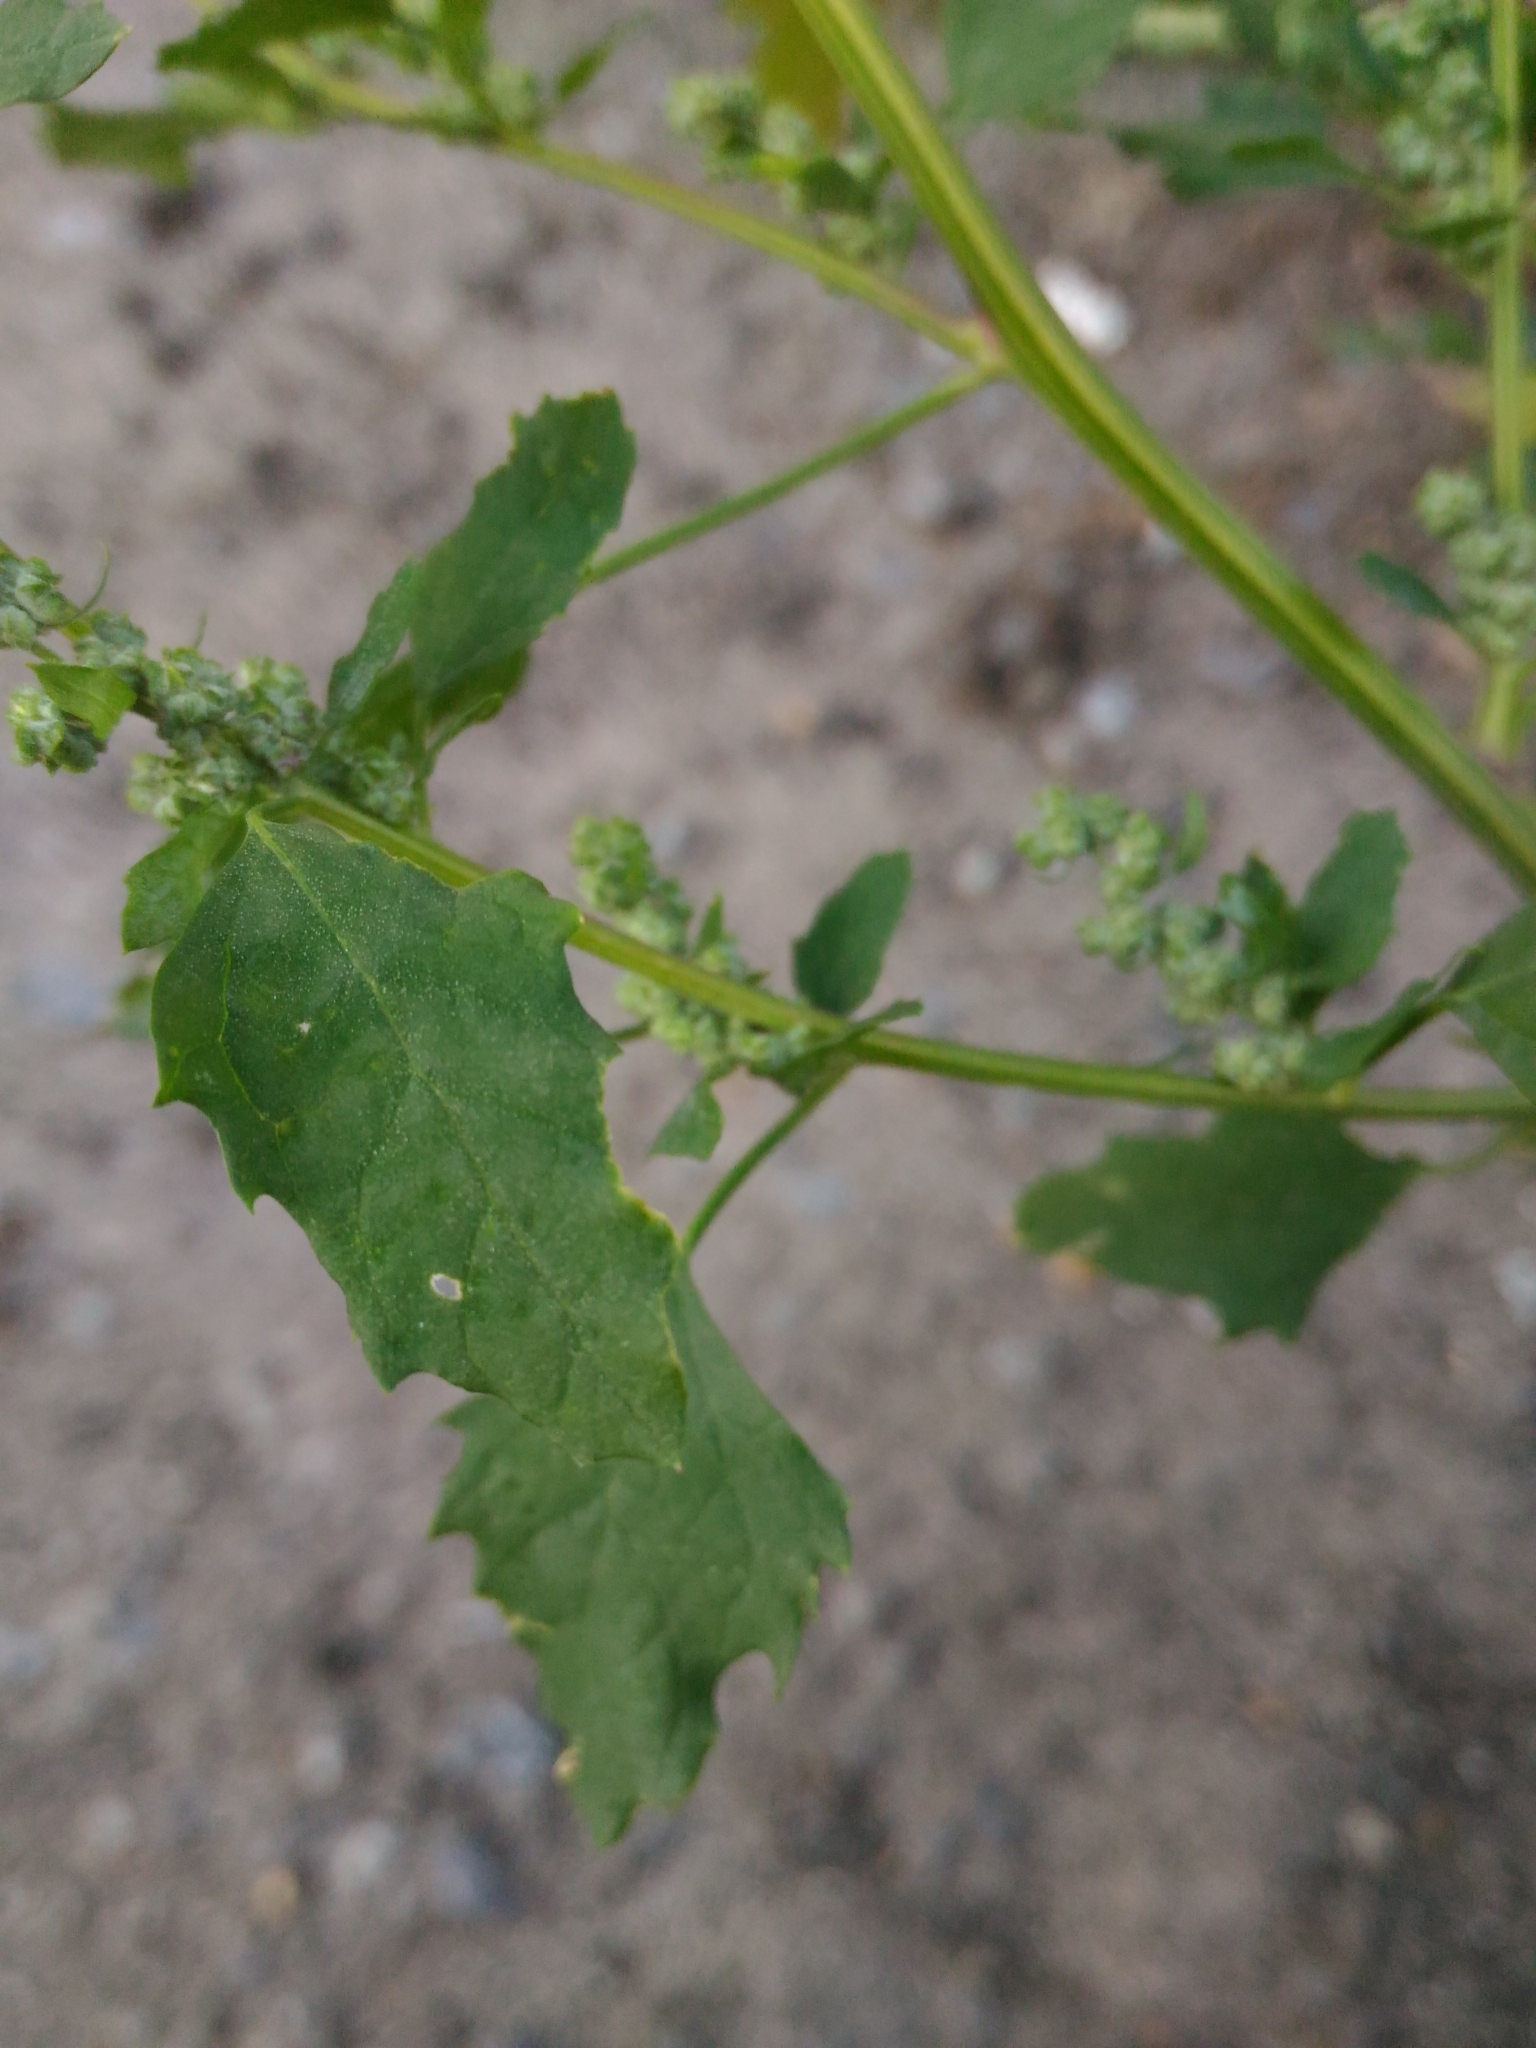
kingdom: Plantae
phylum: Tracheophyta
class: Magnoliopsida
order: Caryophyllales
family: Amaranthaceae
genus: Chenopodium
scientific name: Chenopodium album
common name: Fat-hen
